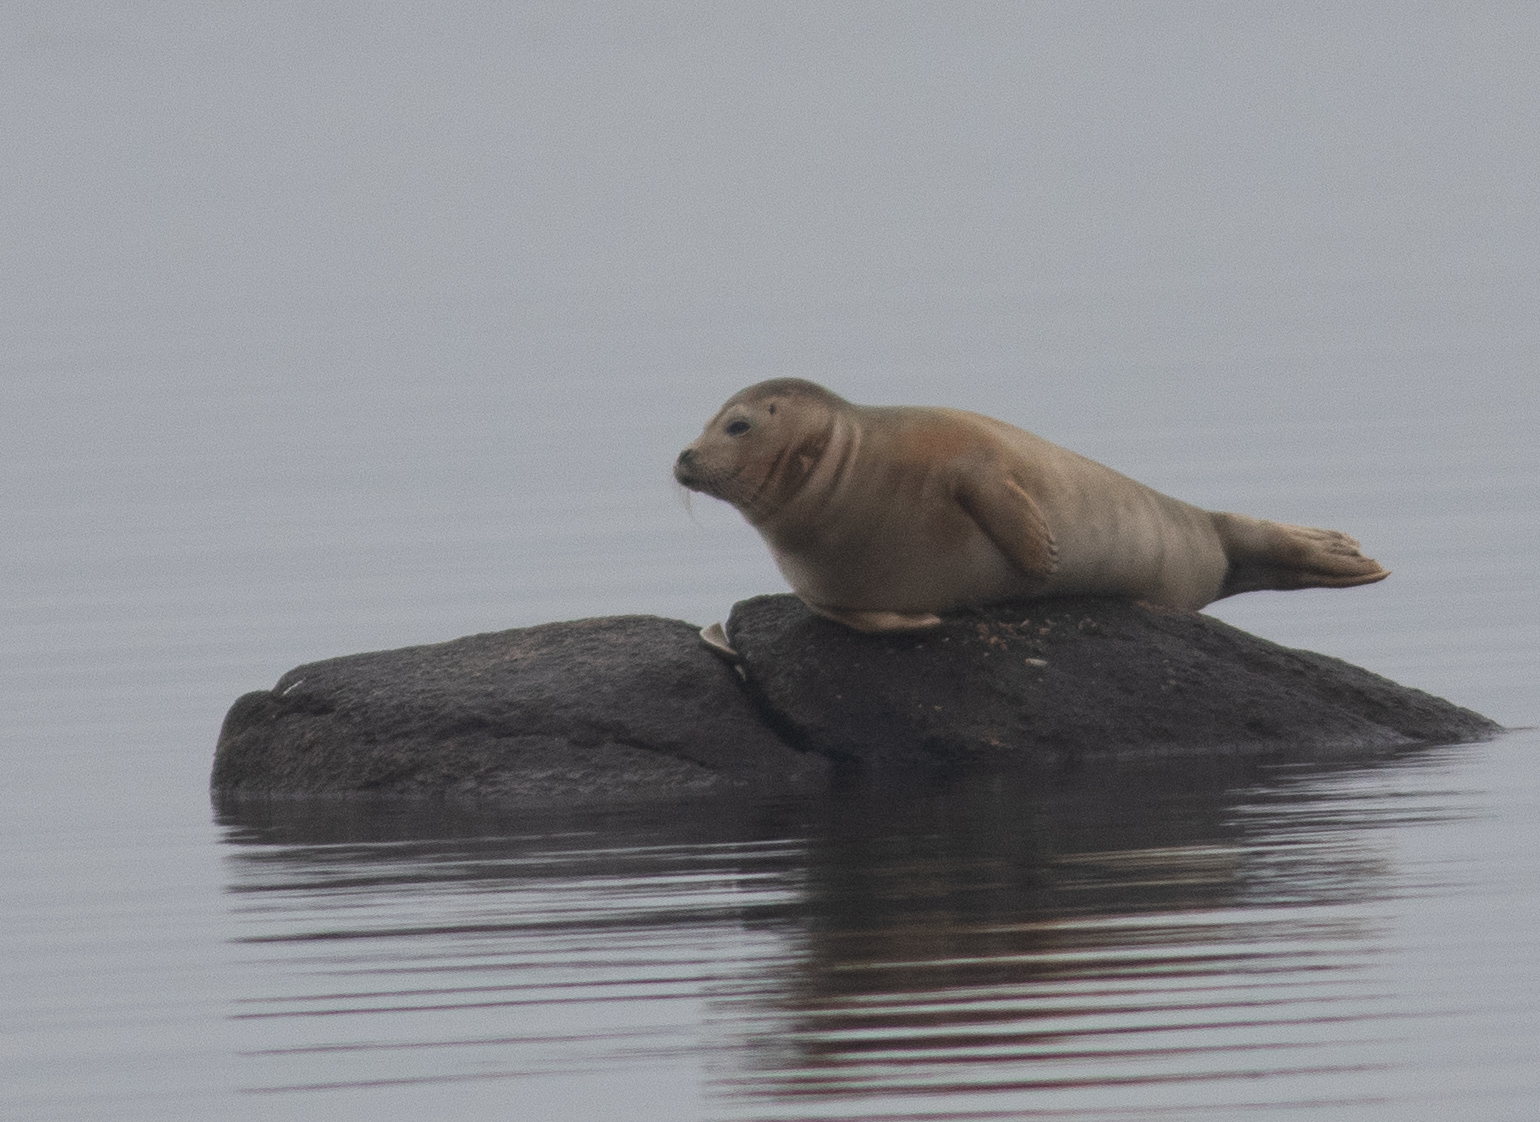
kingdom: Animalia
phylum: Chordata
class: Mammalia
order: Carnivora
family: Phocidae
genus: Phoca
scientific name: Phoca vitulina
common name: Harbor seal
